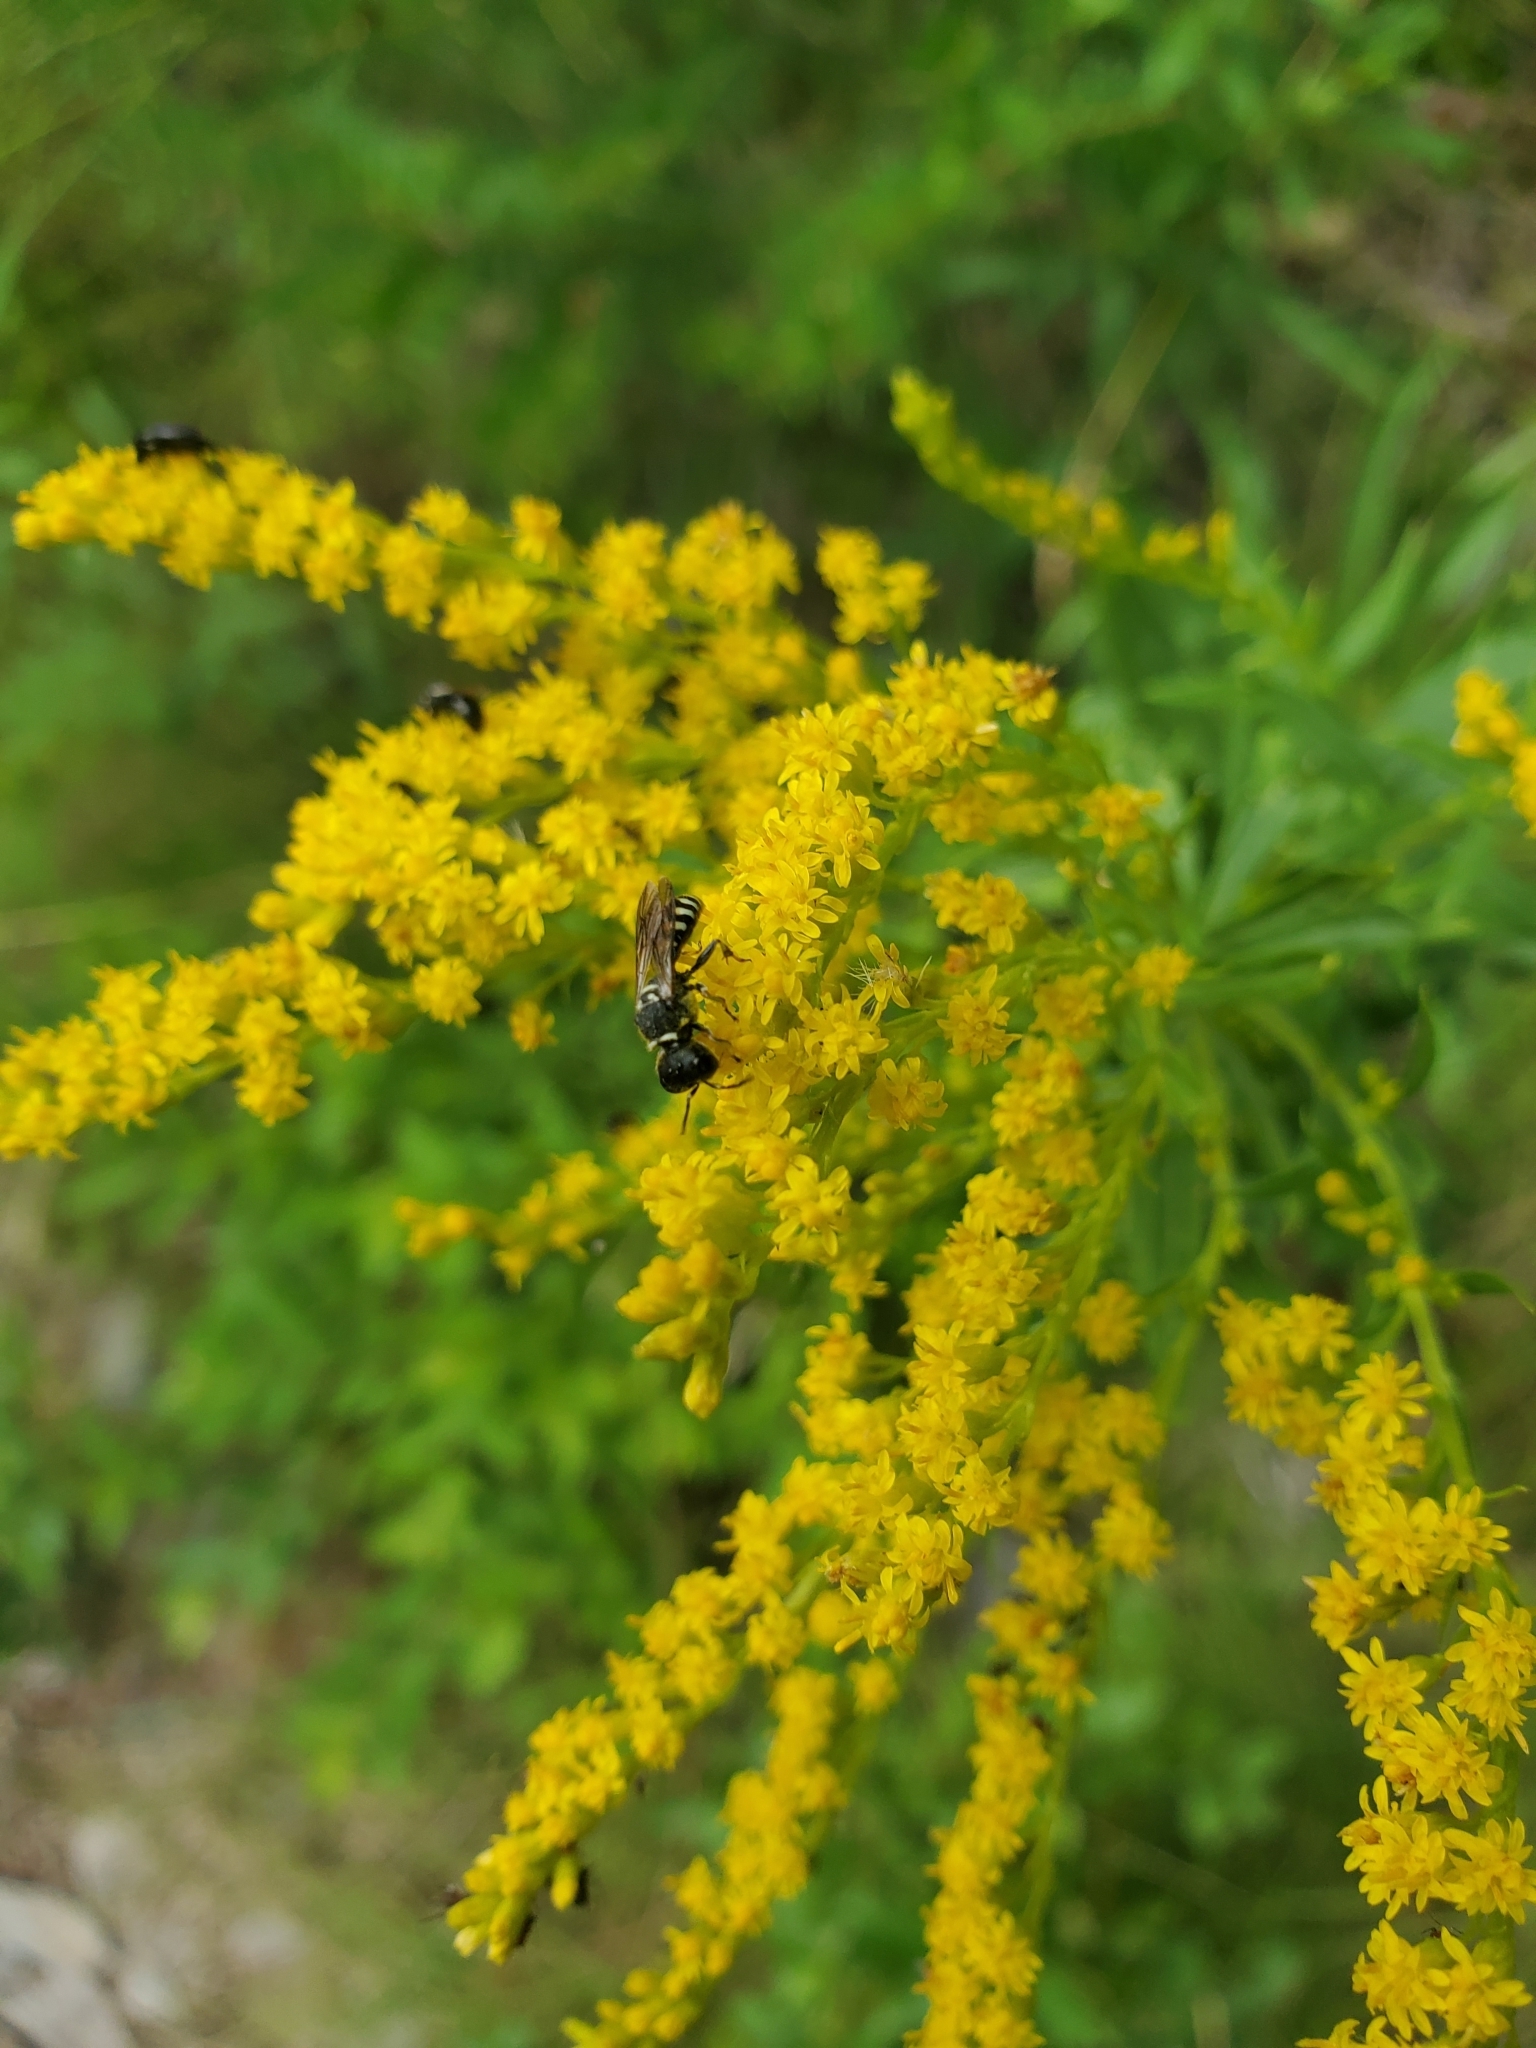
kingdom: Animalia
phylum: Arthropoda
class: Insecta
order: Hymenoptera
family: Crabronidae
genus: Ectemnius
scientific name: Ectemnius dives
